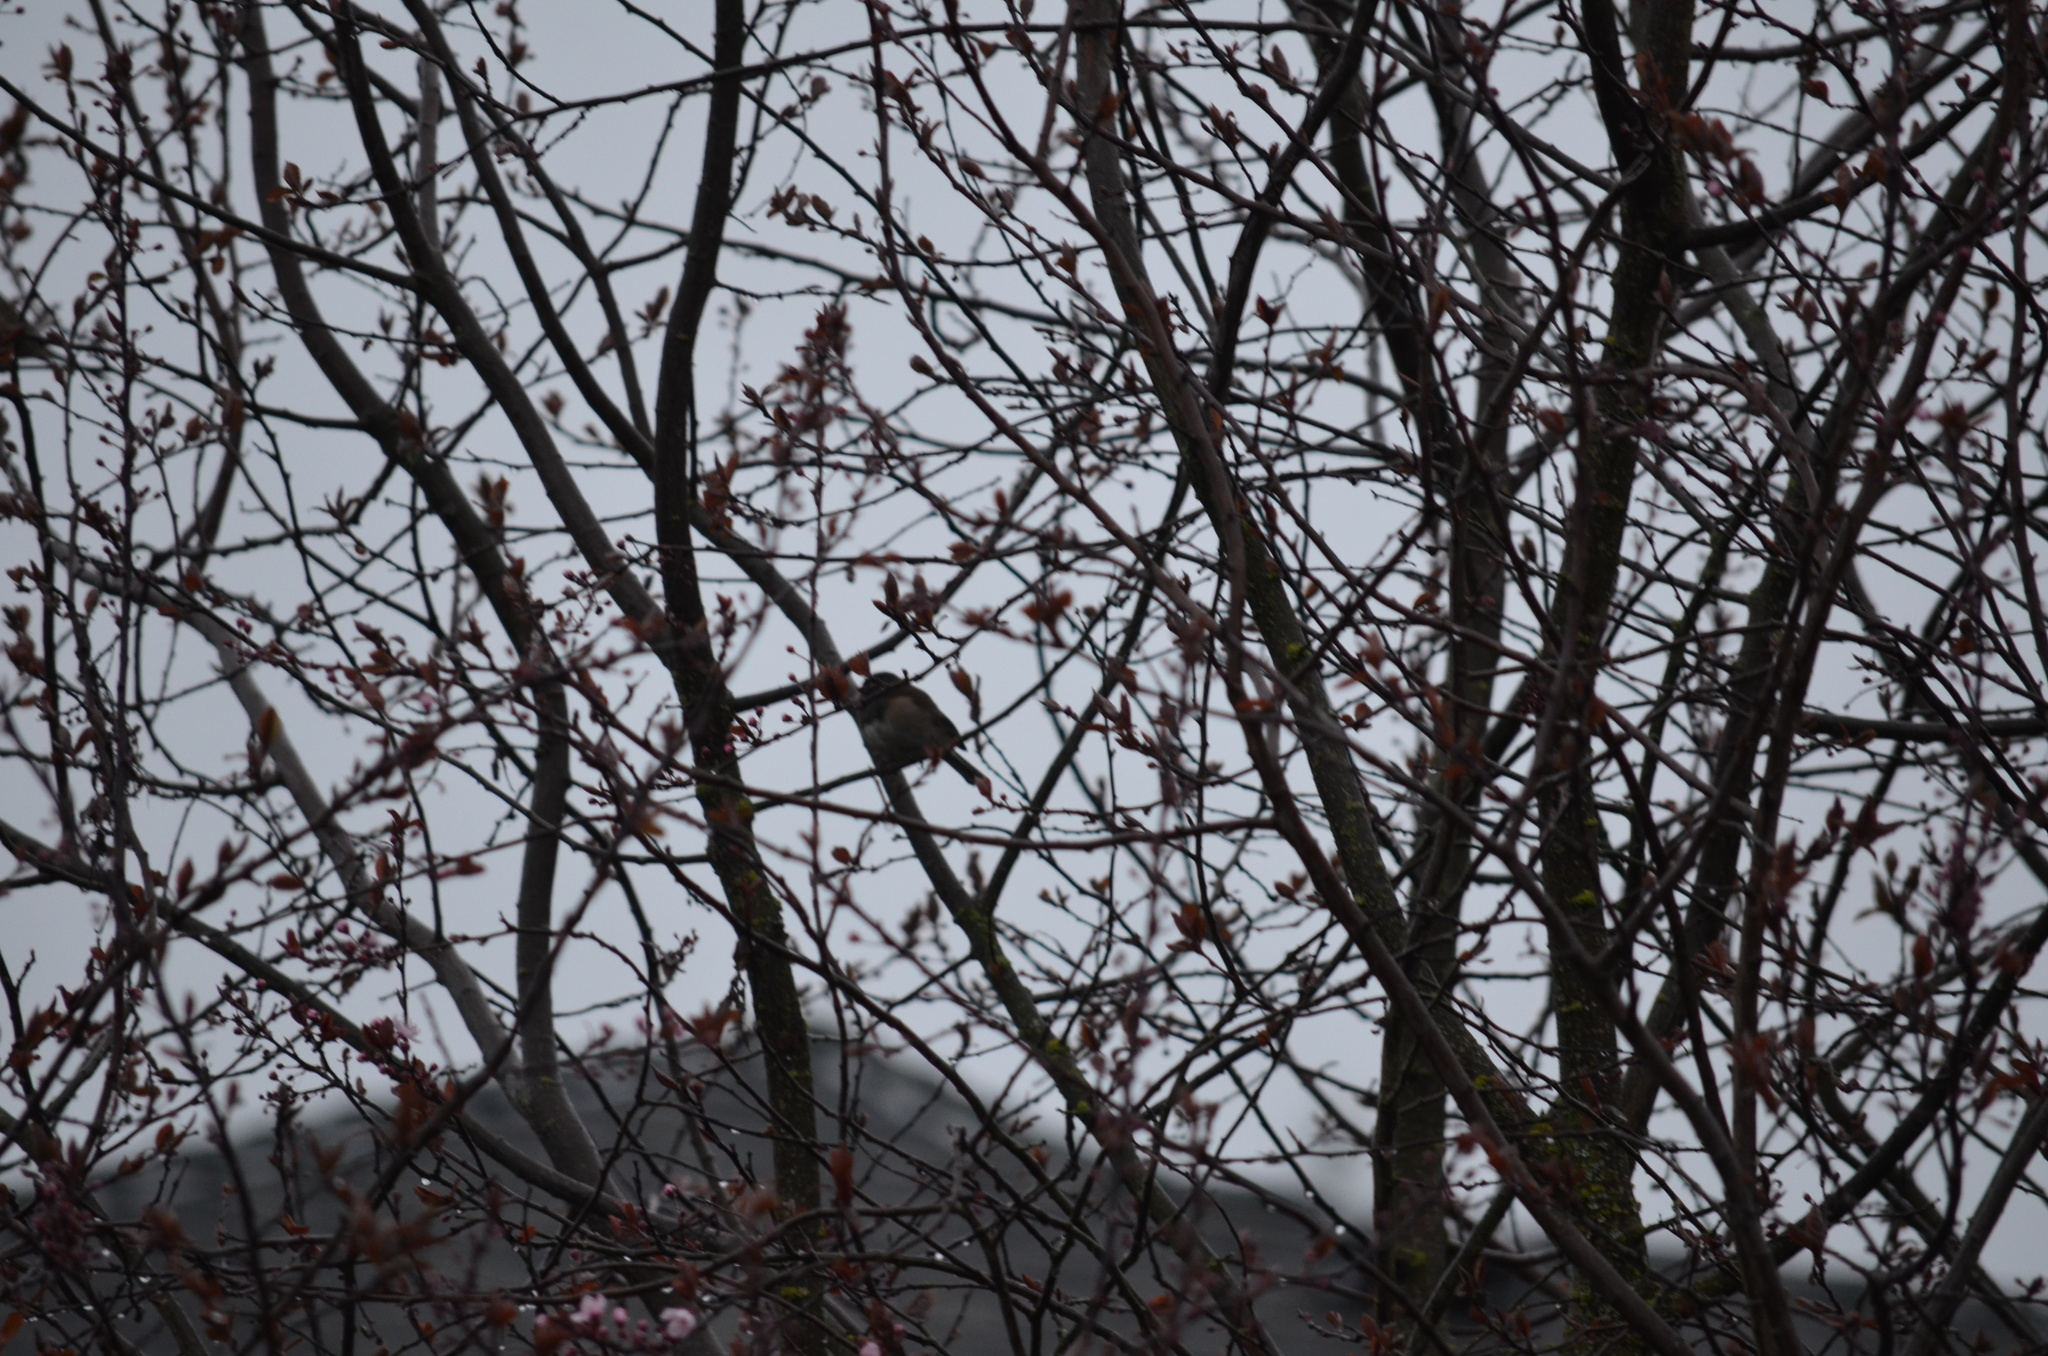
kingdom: Animalia
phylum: Chordata
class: Aves
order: Passeriformes
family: Passerellidae
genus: Junco
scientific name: Junco hyemalis
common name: Dark-eyed junco
